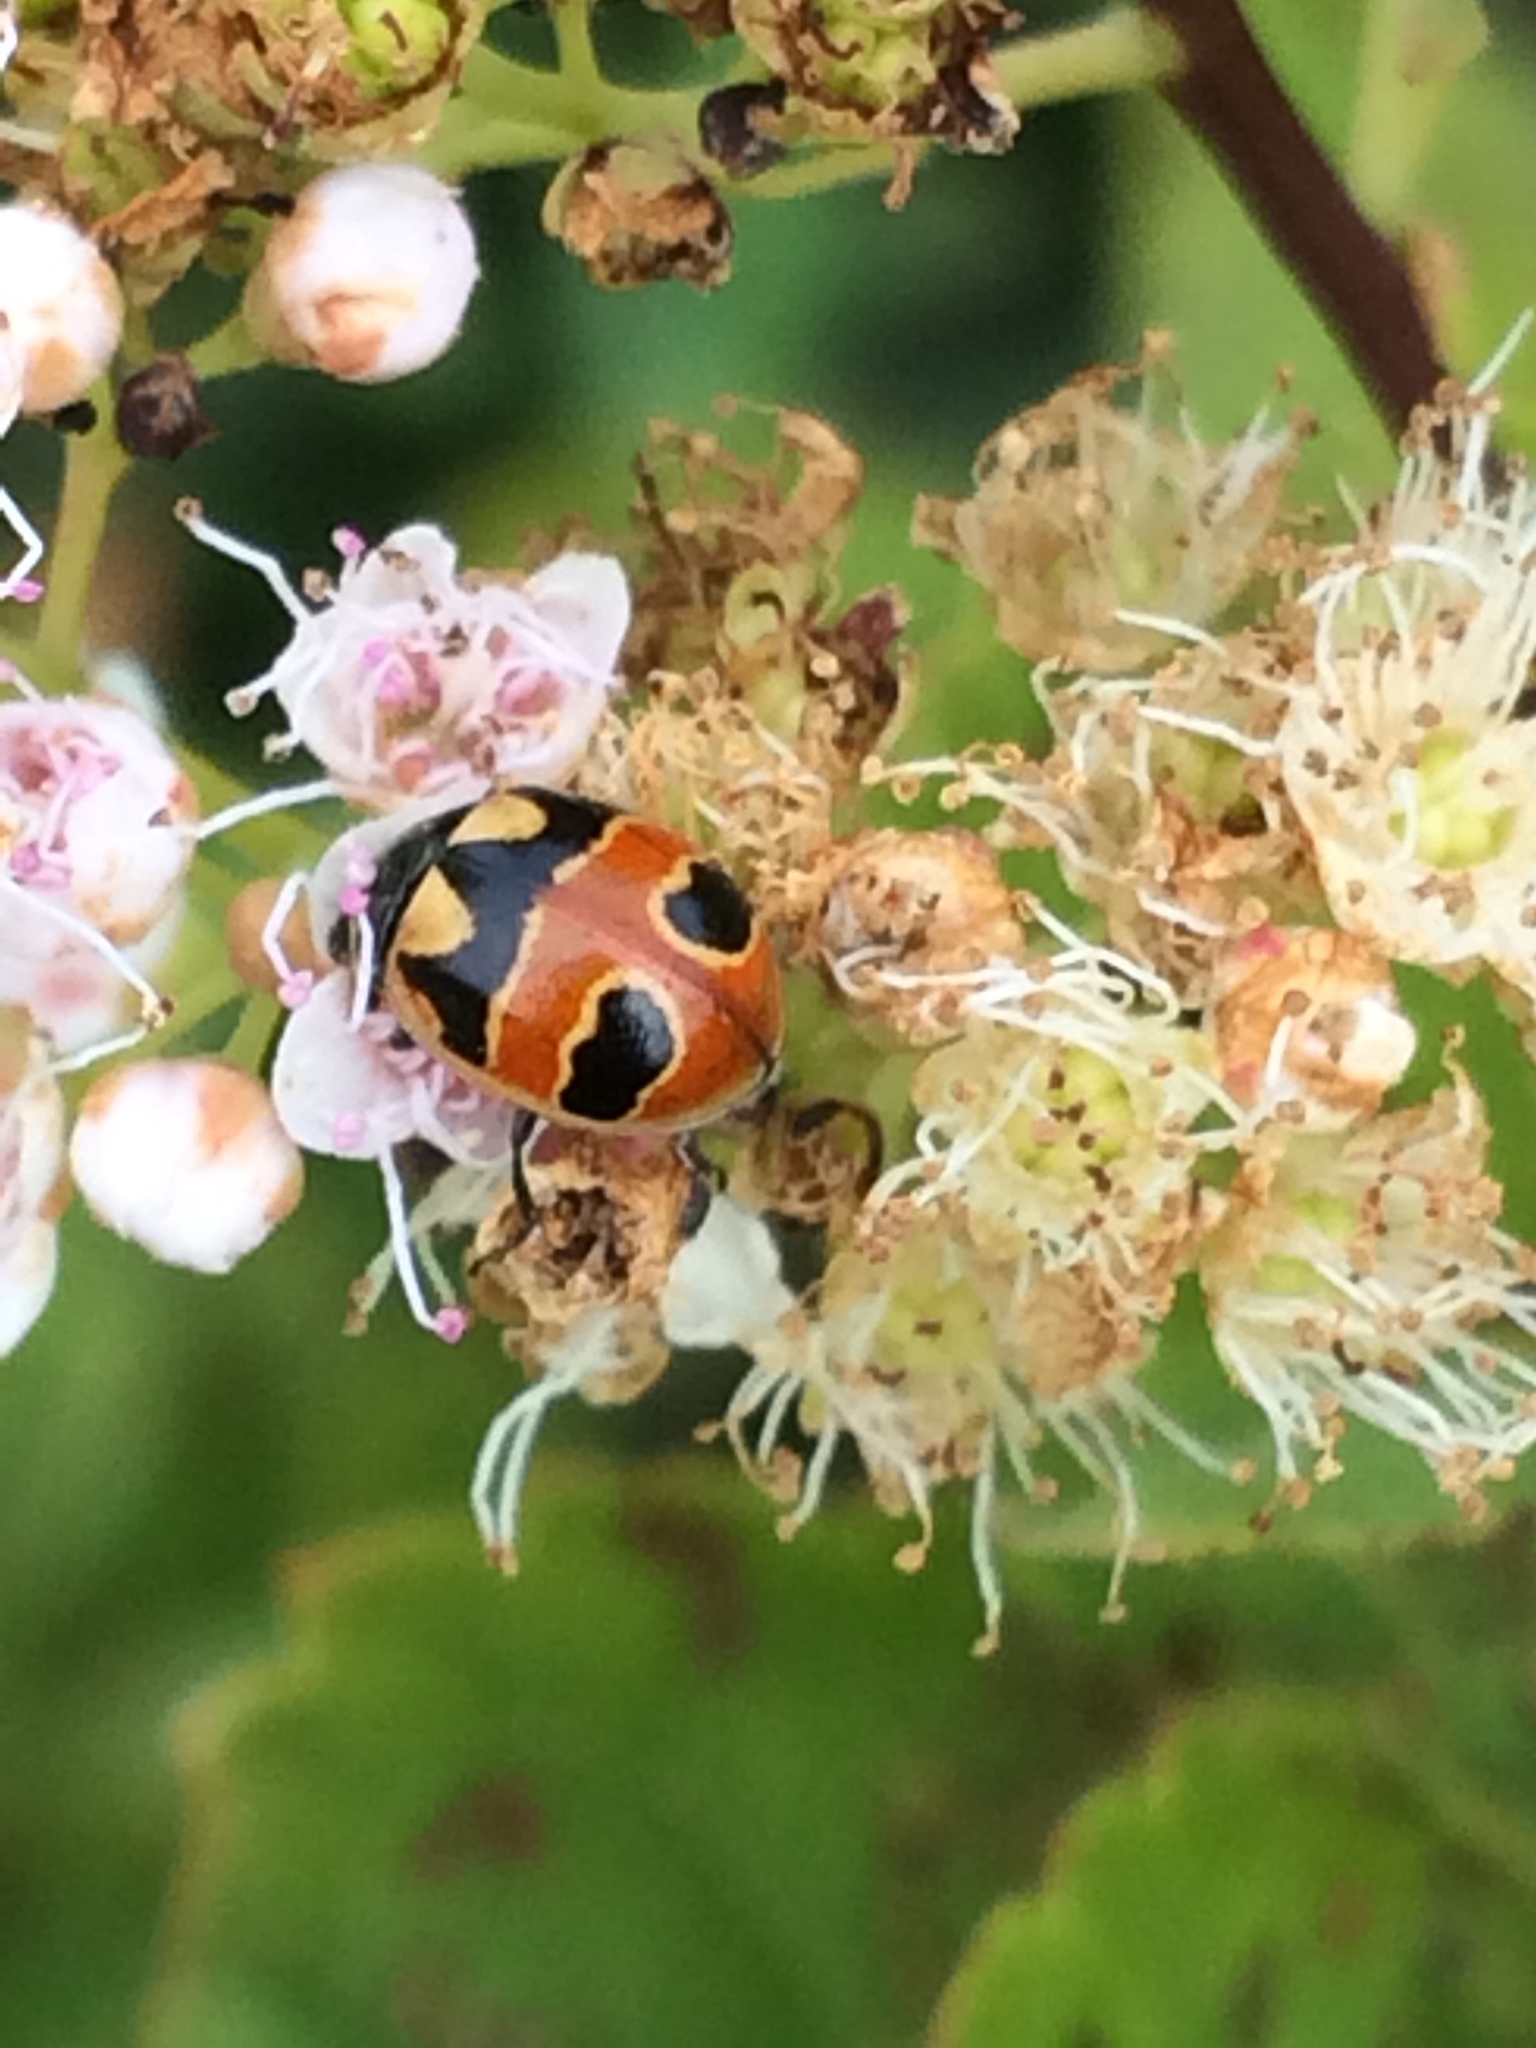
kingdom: Animalia
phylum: Arthropoda
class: Insecta
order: Coleoptera
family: Coccinellidae
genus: Coccinella
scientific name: Coccinella hieroglyphica
